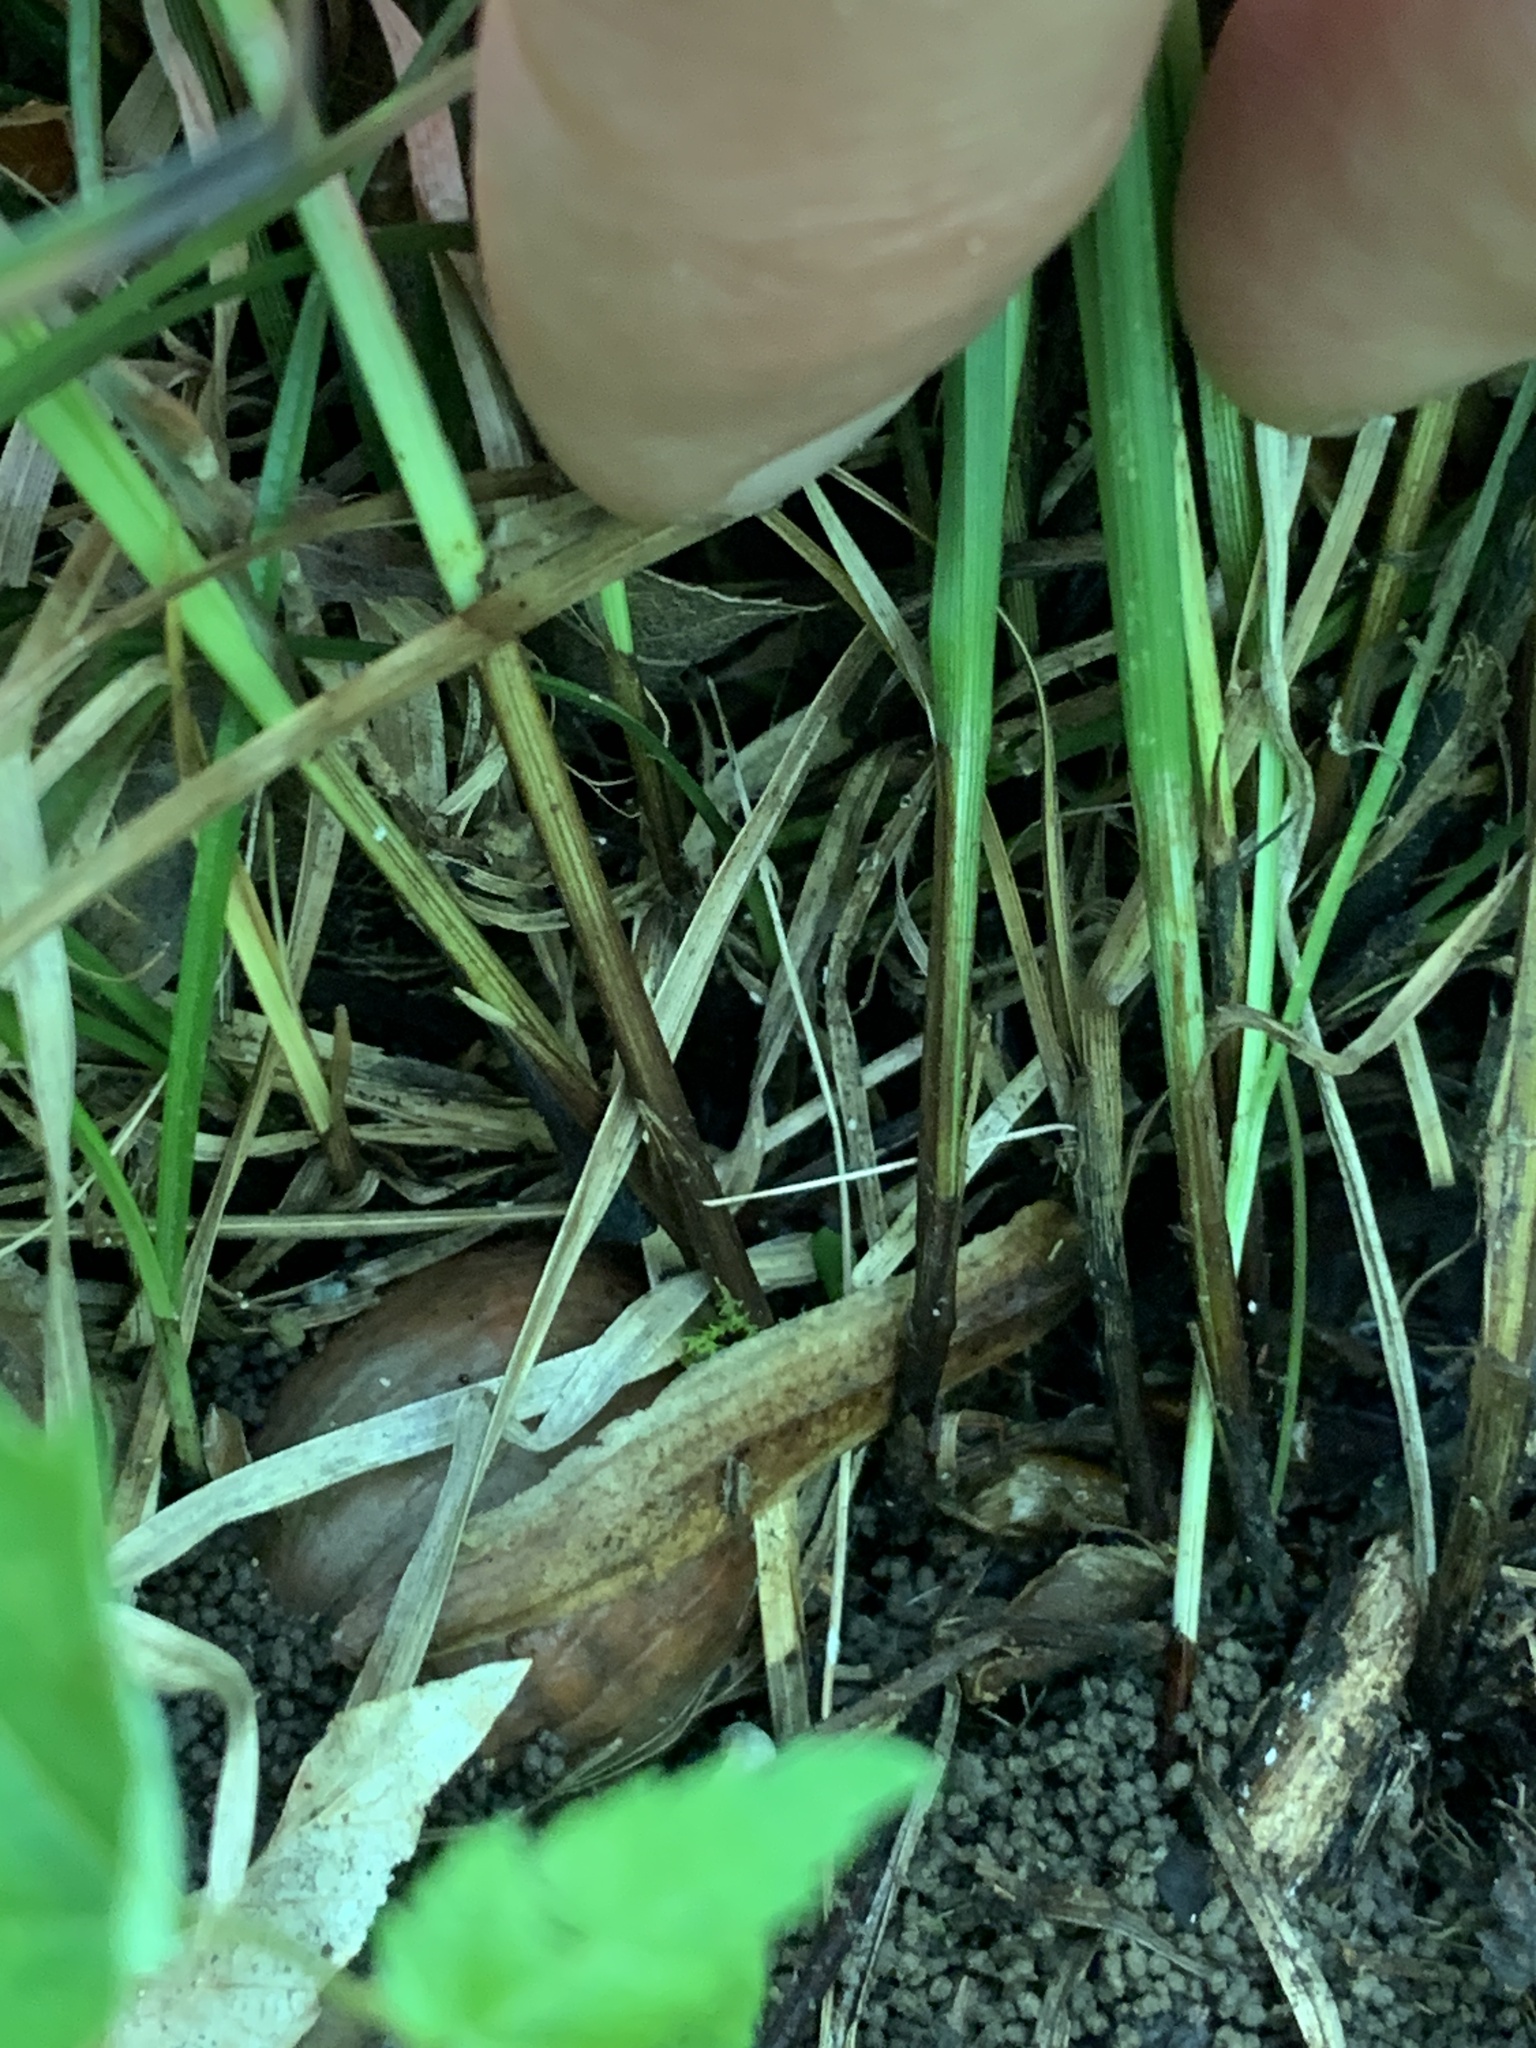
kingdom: Plantae
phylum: Tracheophyta
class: Liliopsida
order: Poales
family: Cyperaceae
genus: Carex
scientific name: Carex jamesii
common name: Grass sedge
